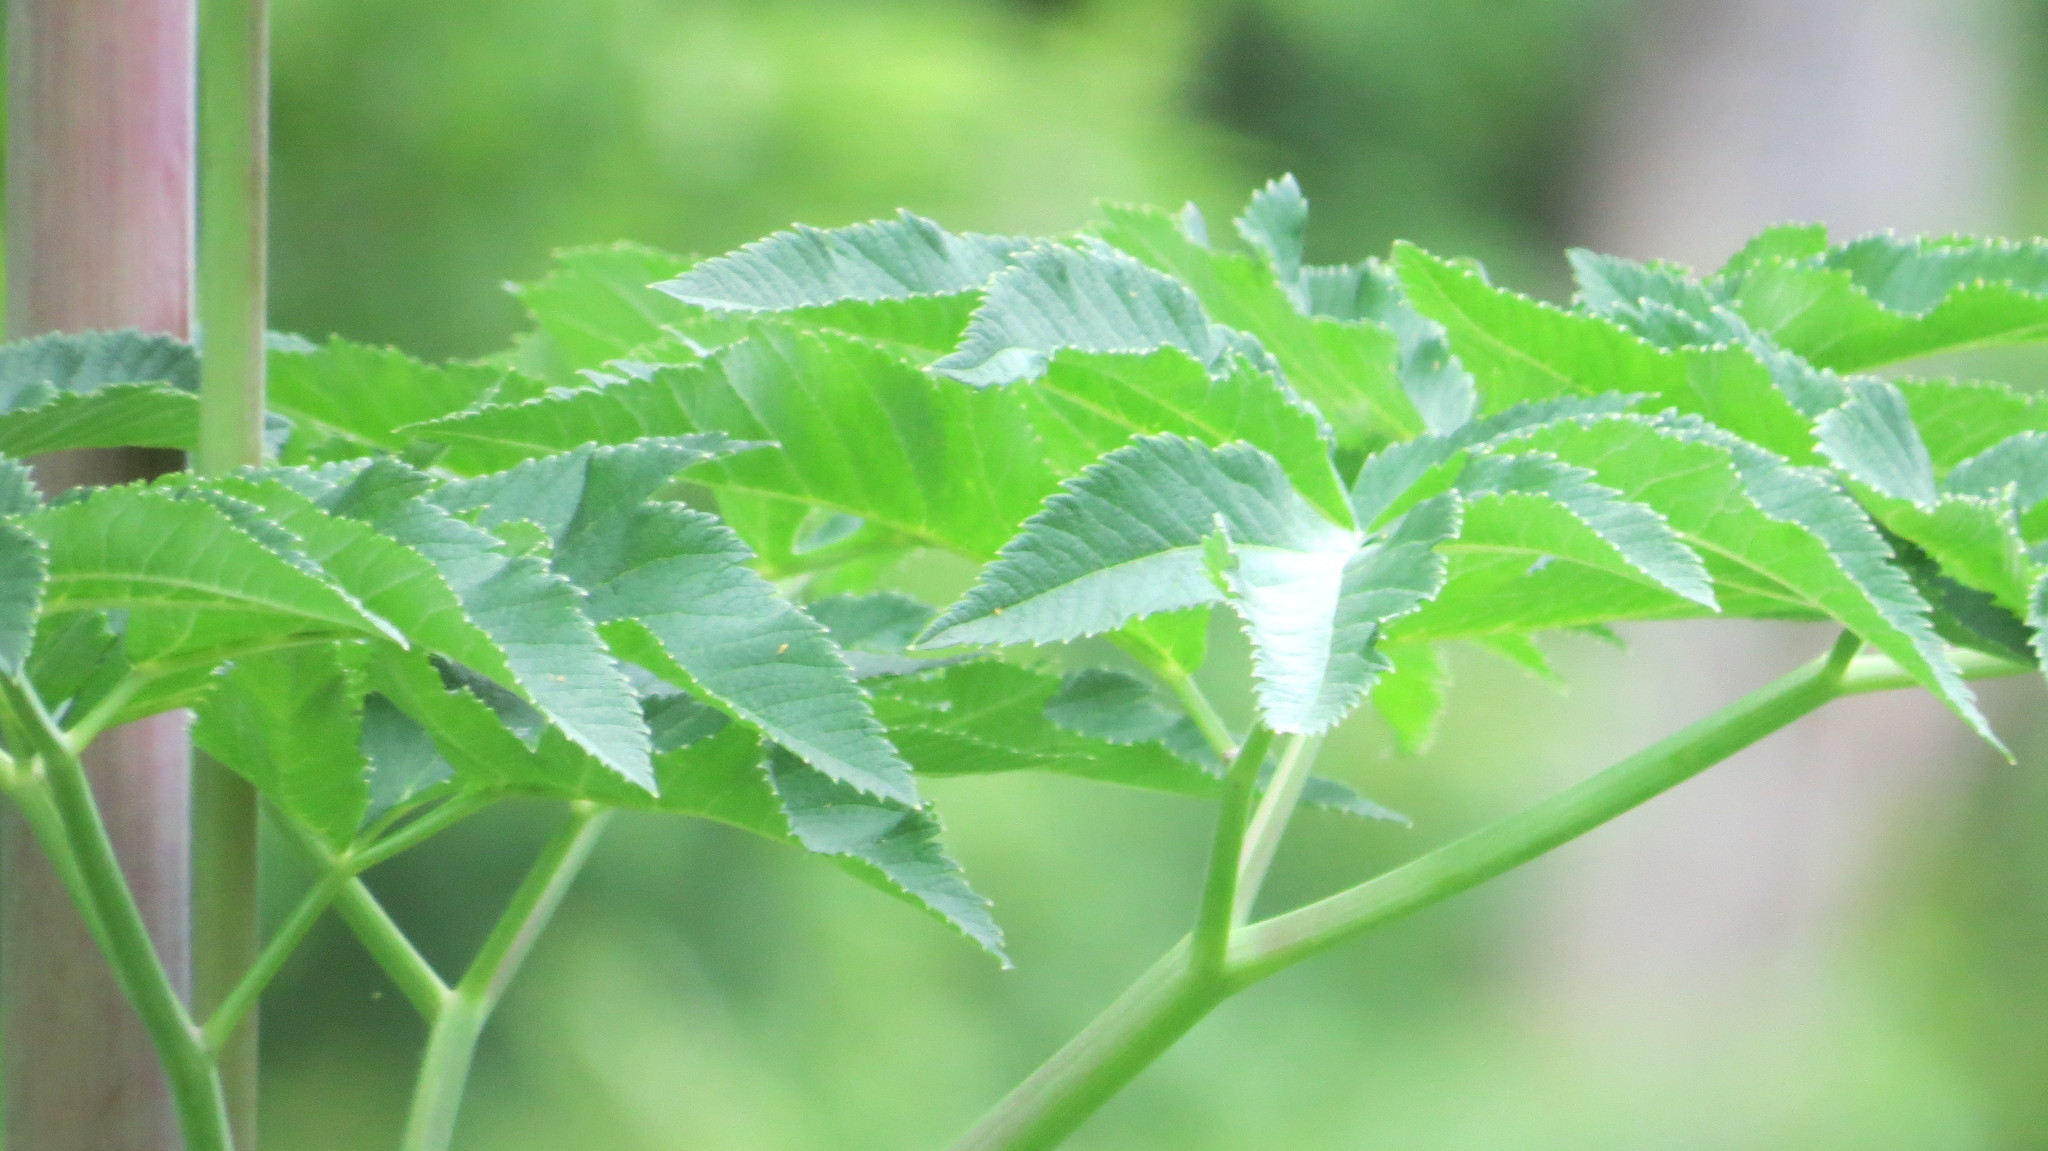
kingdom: Plantae
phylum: Tracheophyta
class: Magnoliopsida
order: Apiales
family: Apiaceae
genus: Angelica
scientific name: Angelica atropurpurea
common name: Great angelica
